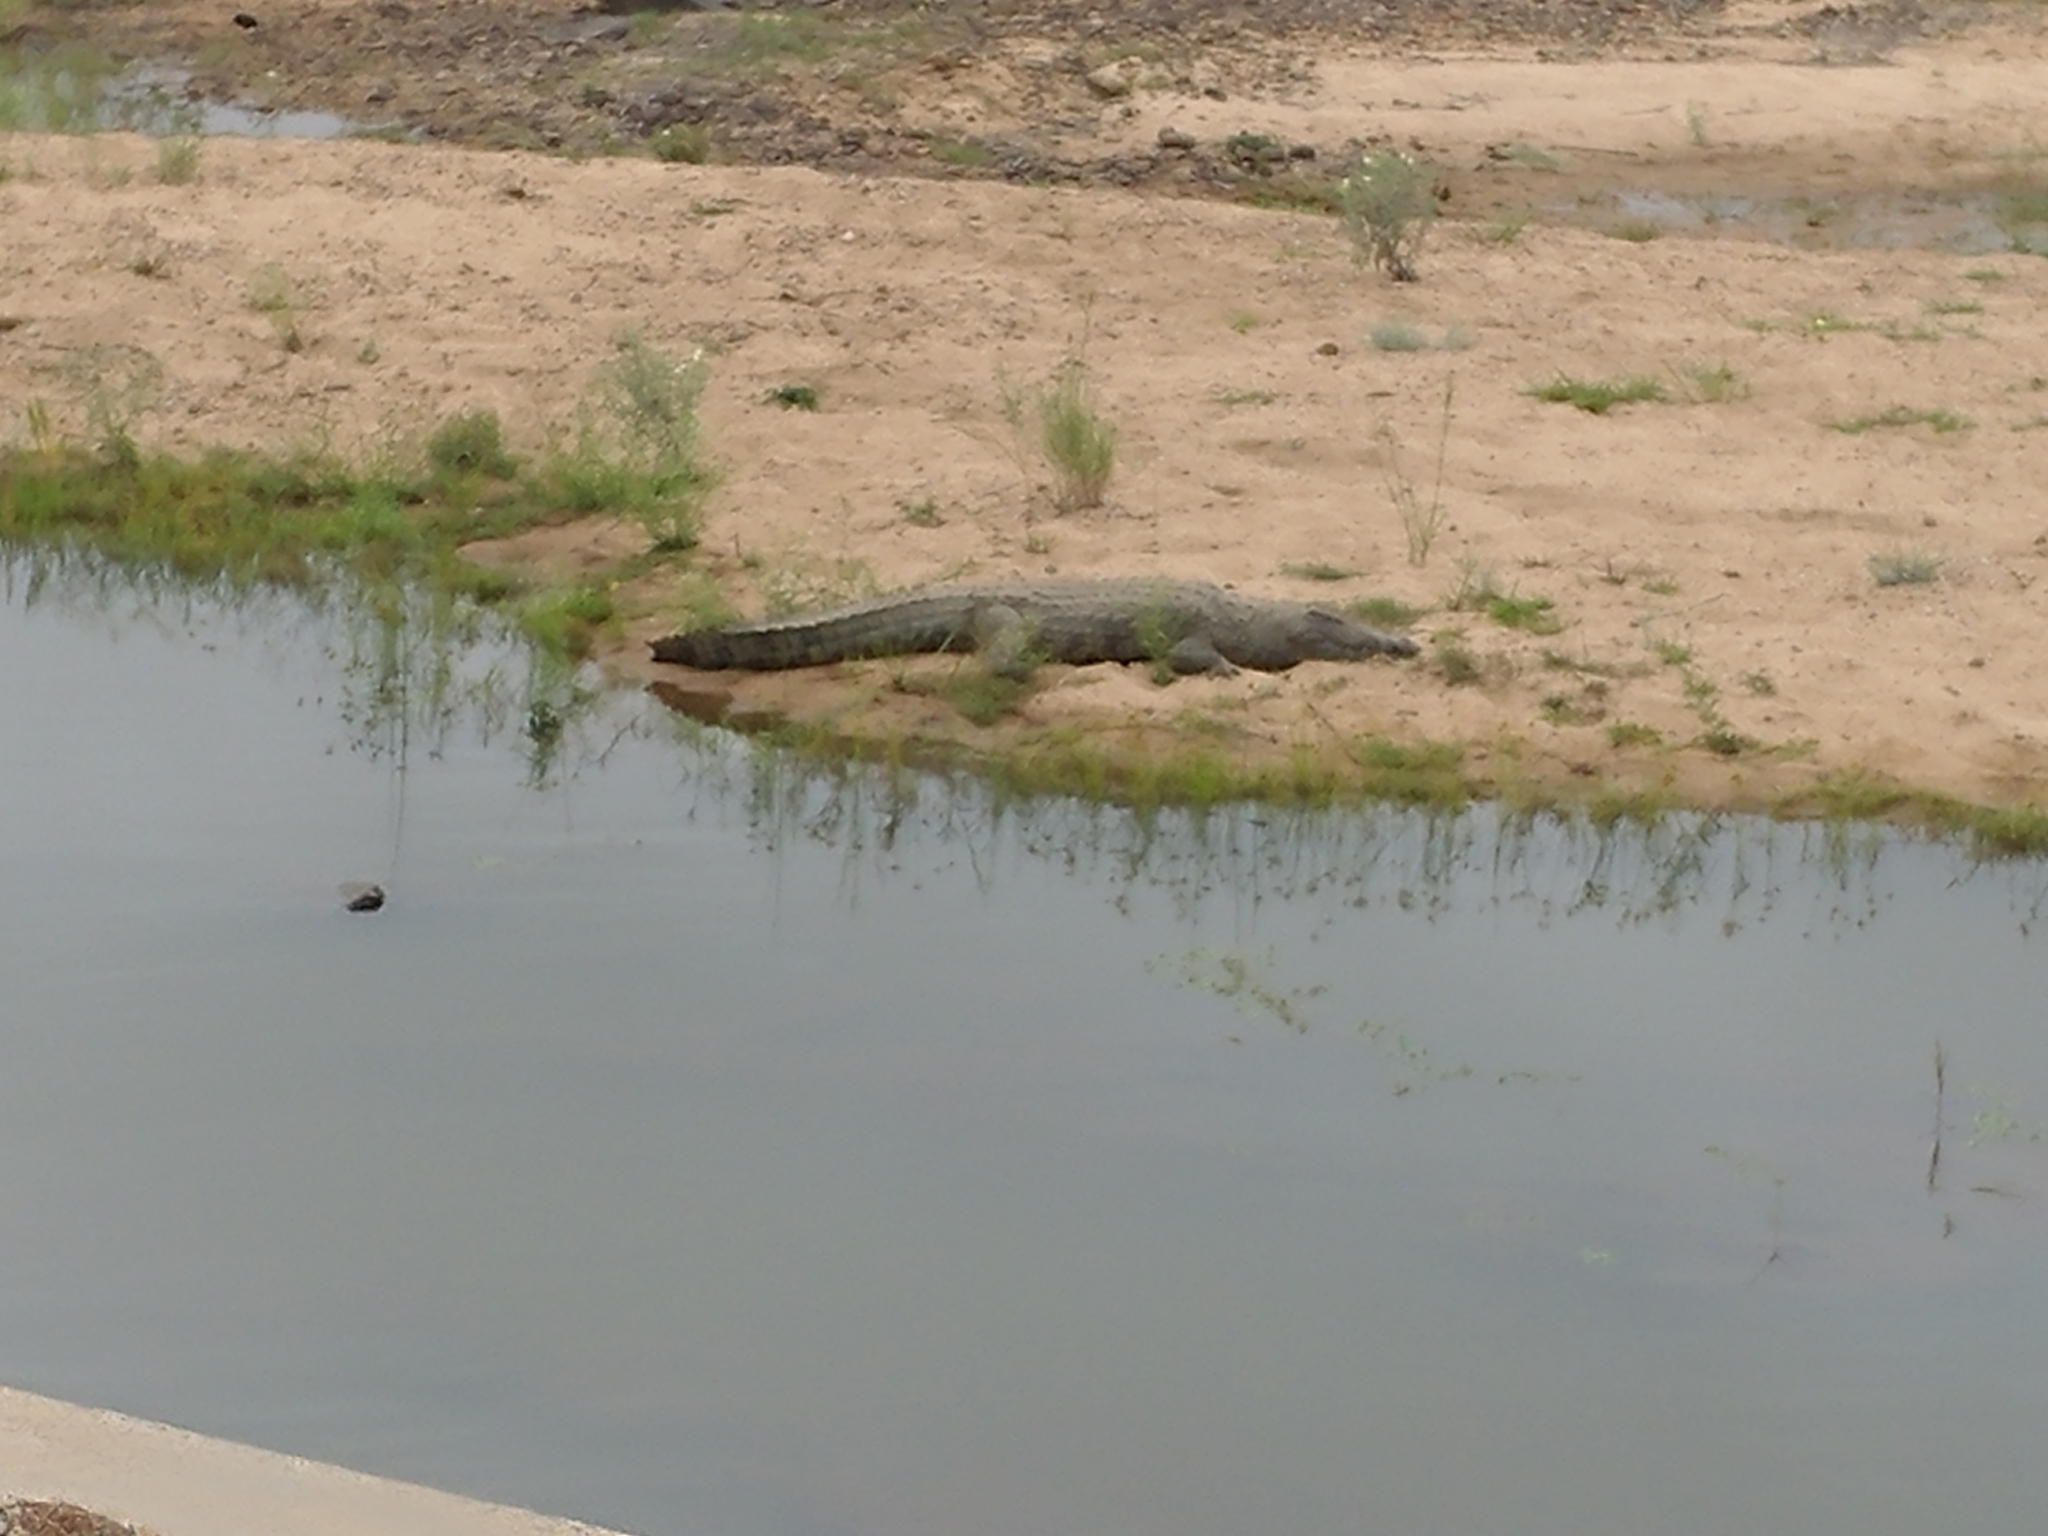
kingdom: Animalia
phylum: Chordata
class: Crocodylia
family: Crocodylidae
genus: Crocodylus
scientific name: Crocodylus niloticus
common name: Nile crocodile
